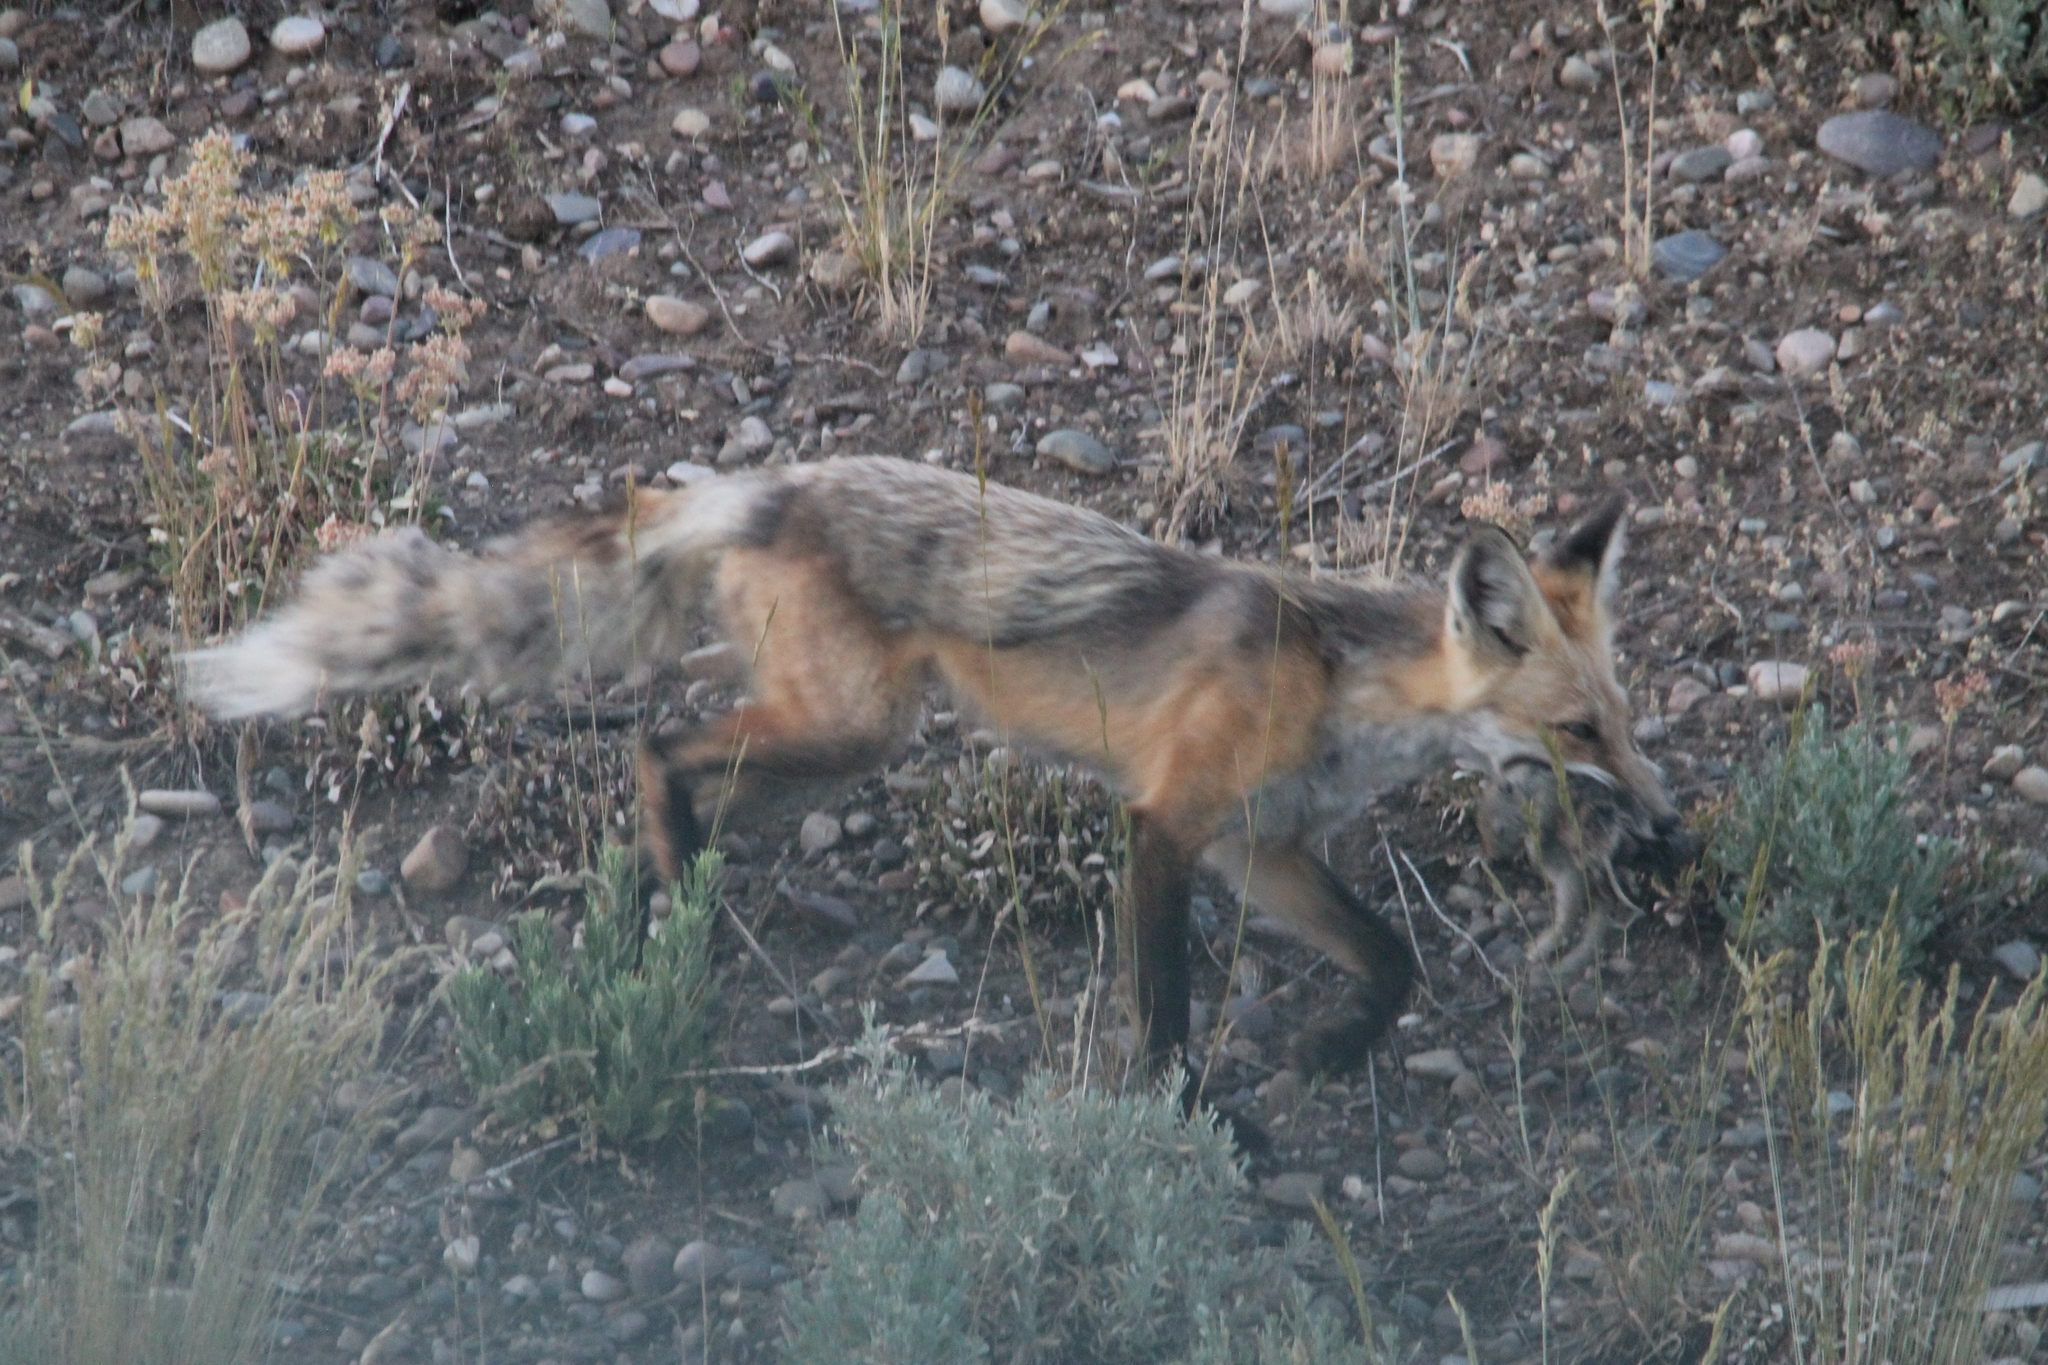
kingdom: Animalia
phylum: Chordata
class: Mammalia
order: Carnivora
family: Canidae
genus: Vulpes
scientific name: Vulpes vulpes
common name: Red fox
